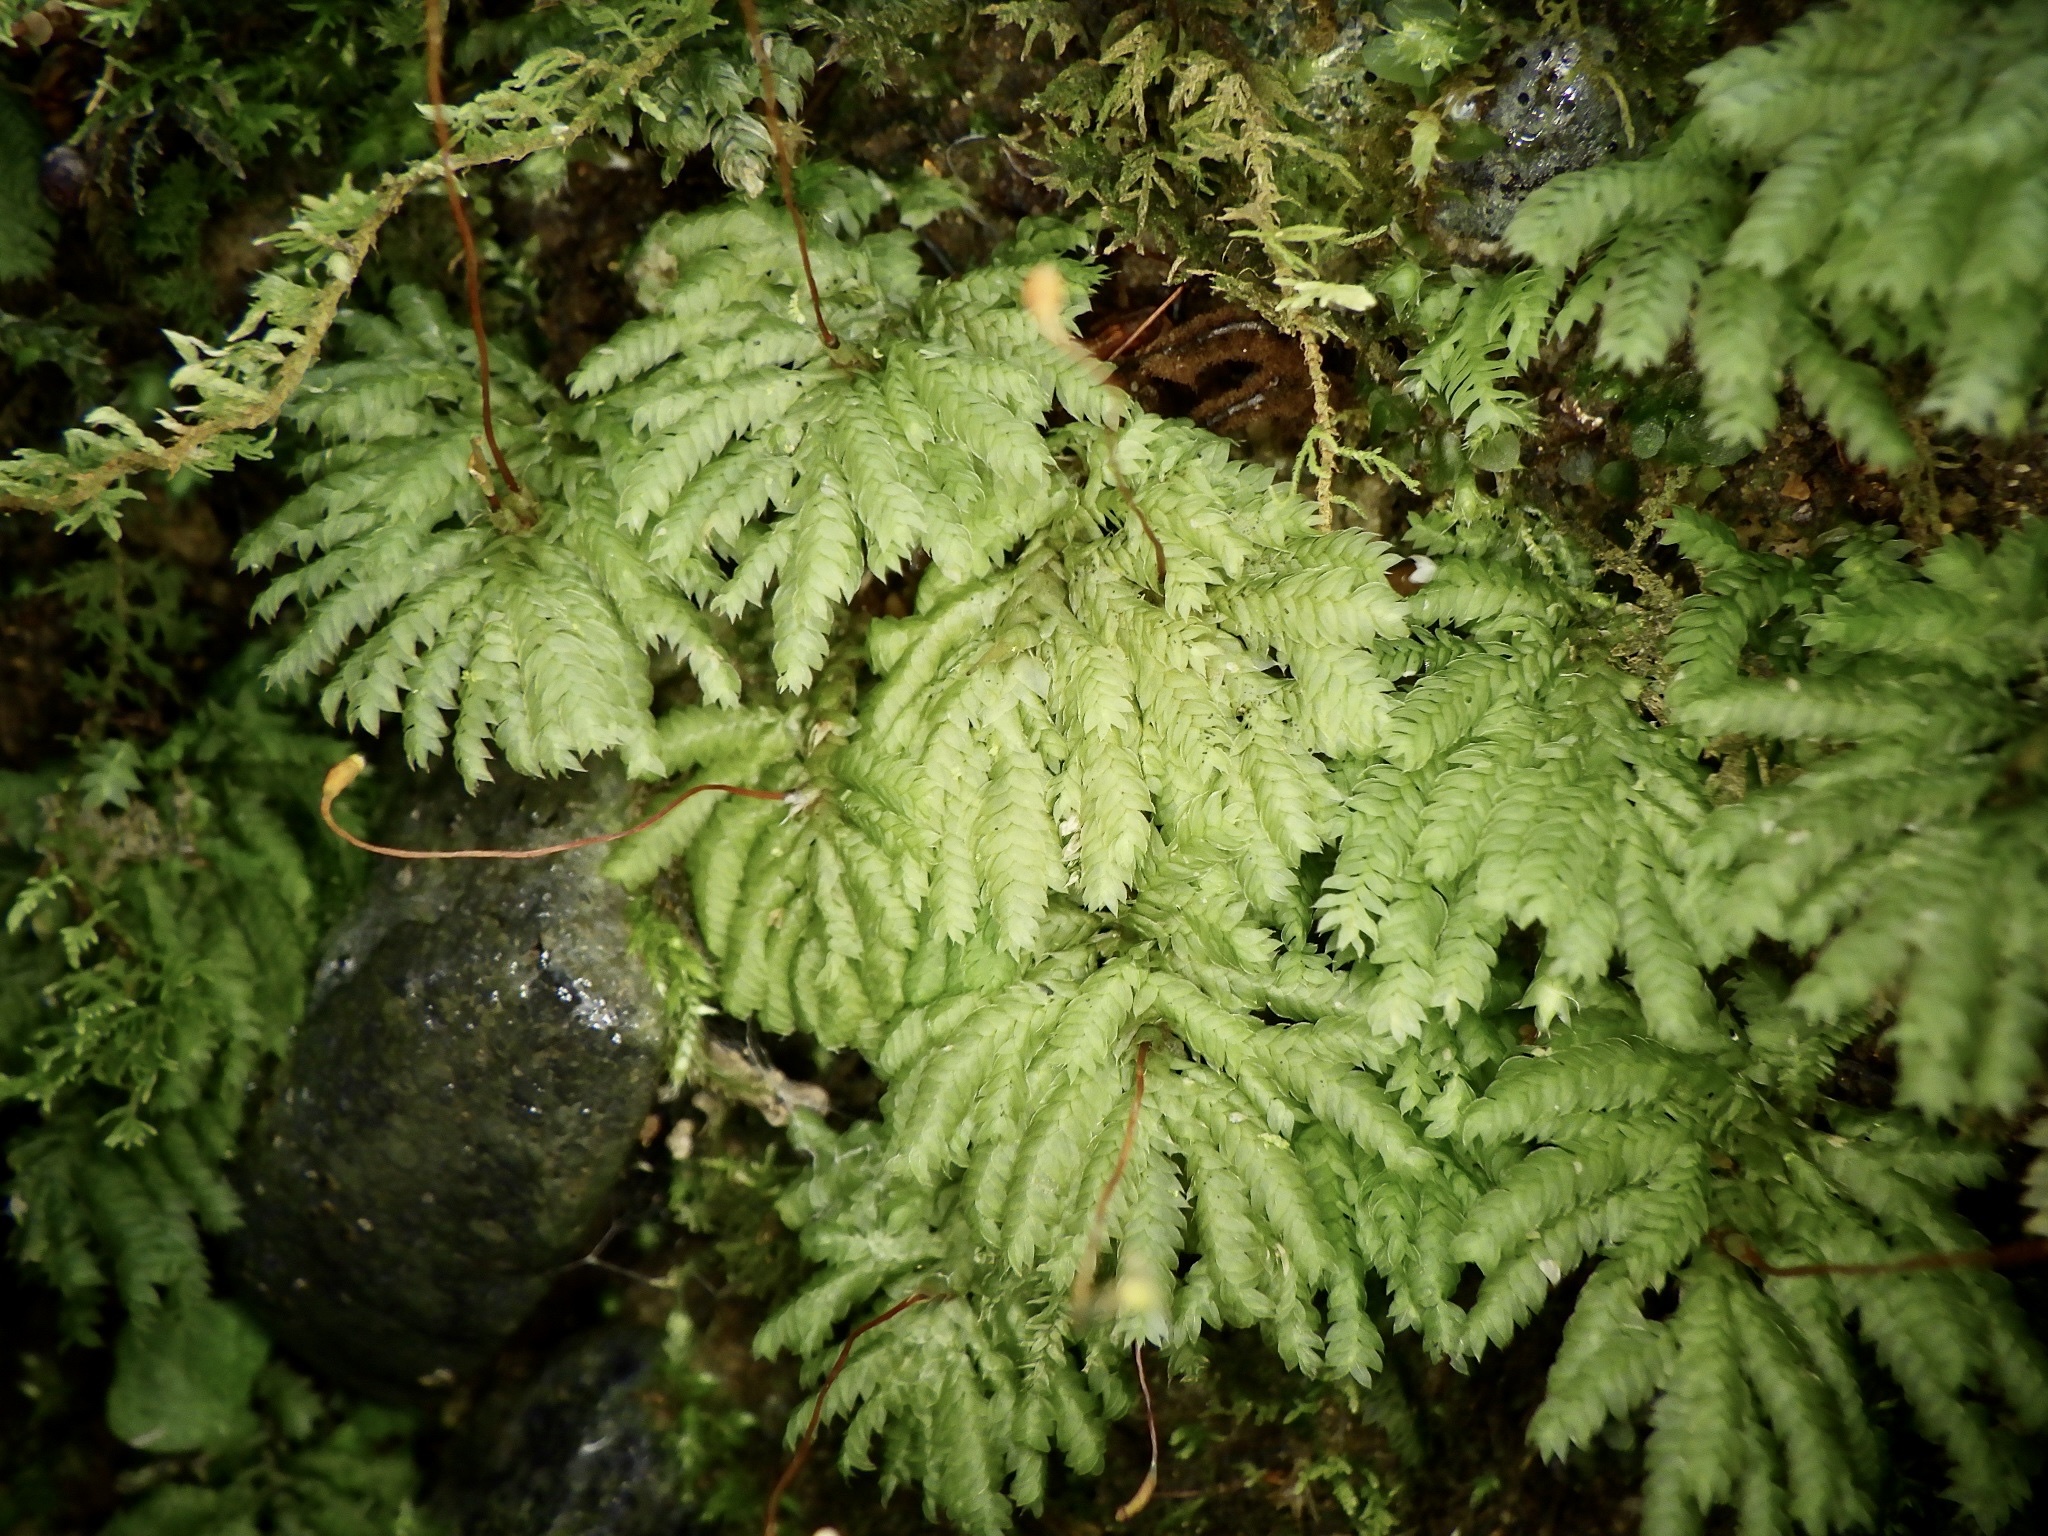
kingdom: Plantae
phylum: Bryophyta
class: Bryopsida
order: Hypopterygiales
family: Hypopterygiaceae
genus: Hypopterygium
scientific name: Hypopterygium flavolimbatum
